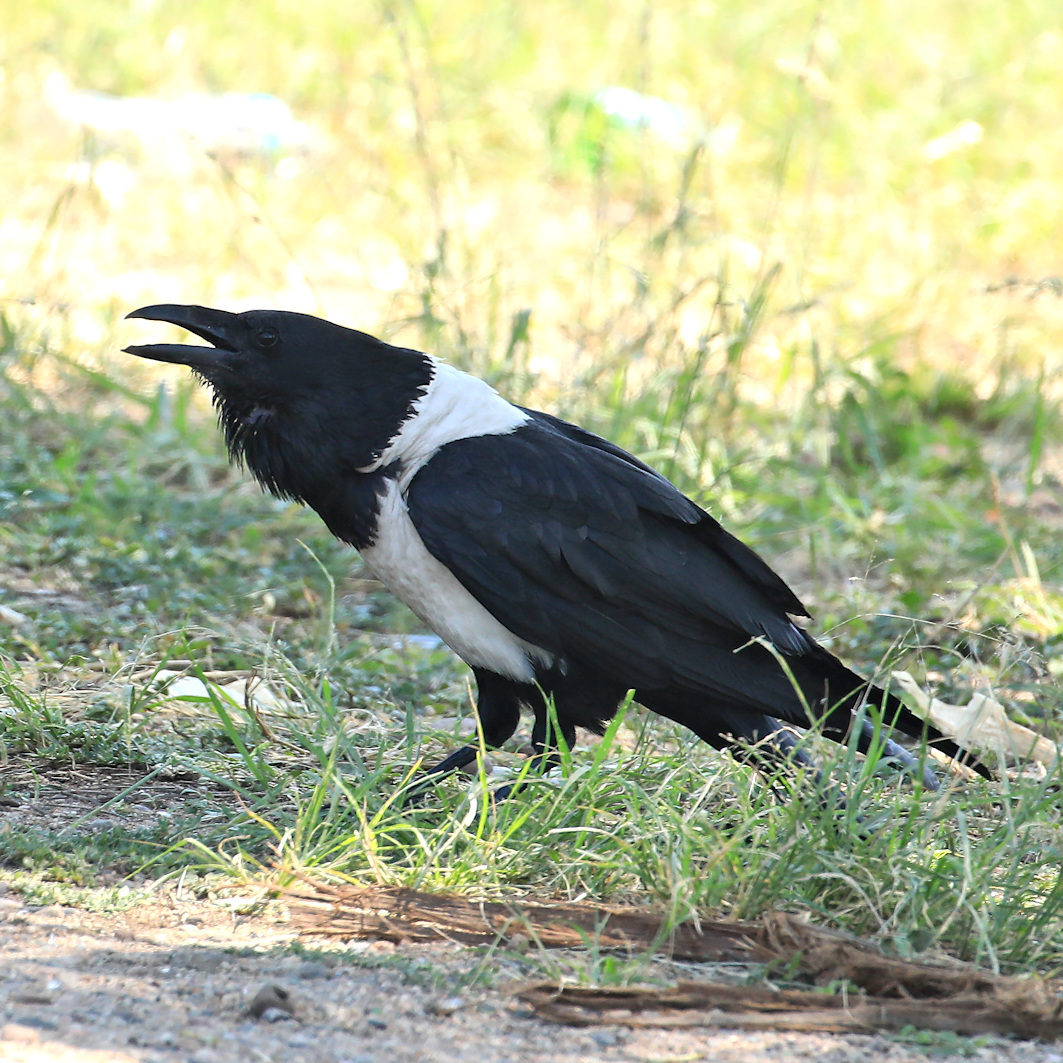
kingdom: Animalia
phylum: Chordata
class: Aves
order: Passeriformes
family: Corvidae
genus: Corvus
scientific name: Corvus albus
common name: Pied crow
